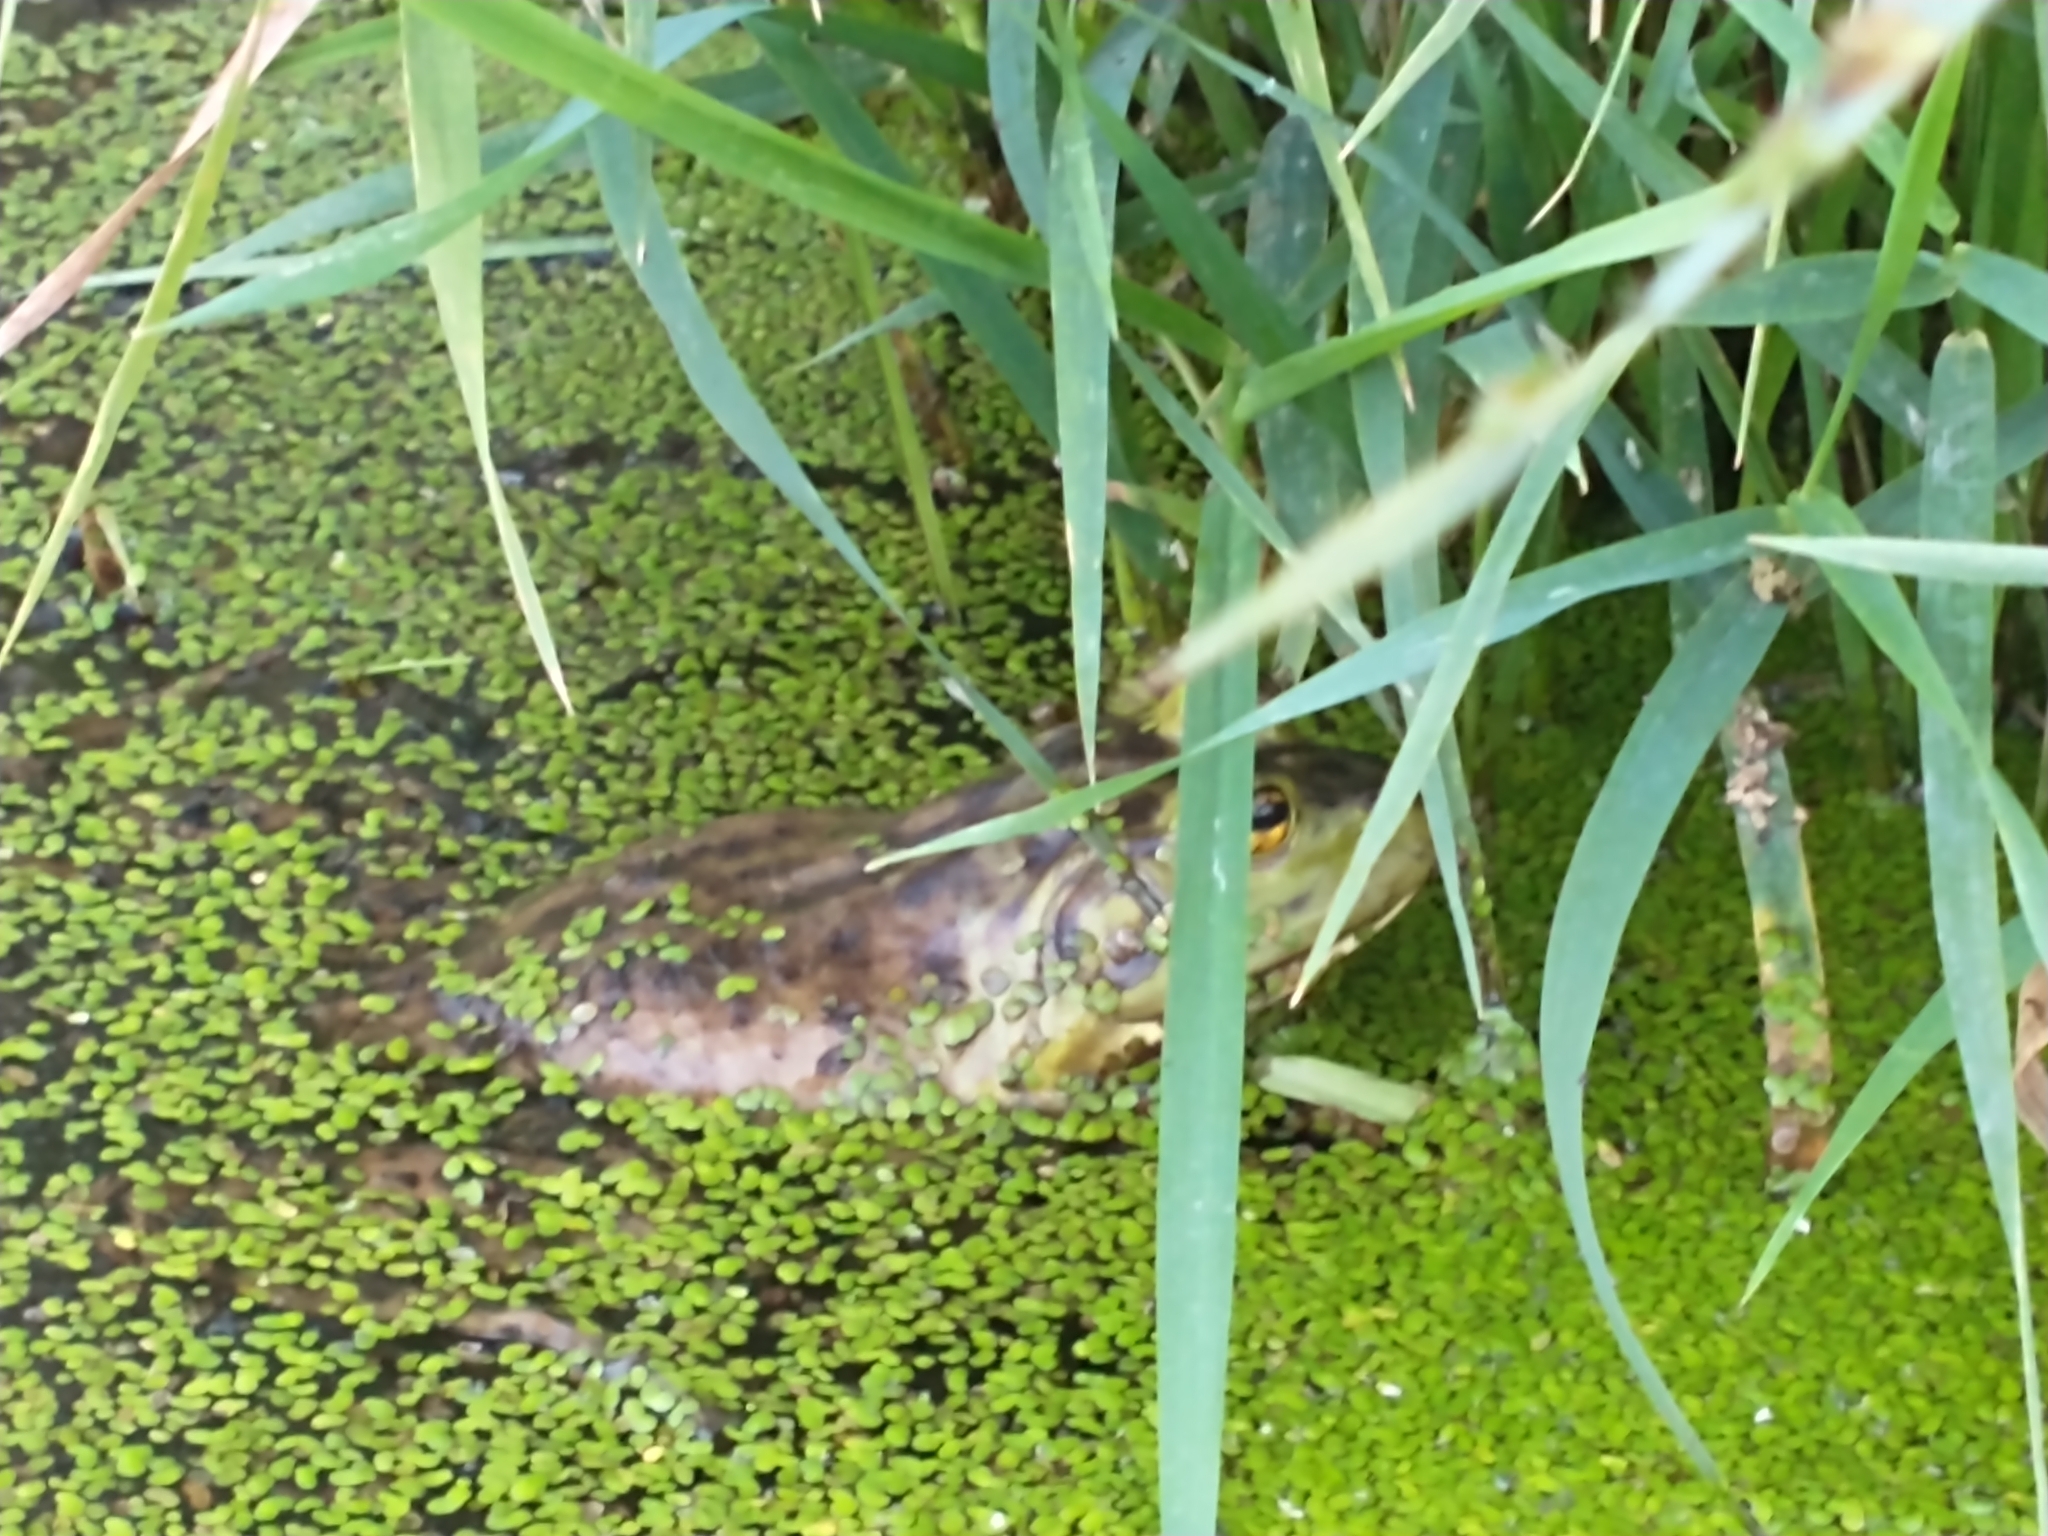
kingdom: Animalia
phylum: Chordata
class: Amphibia
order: Anura
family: Ranidae
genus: Lithobates
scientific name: Lithobates catesbeianus
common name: American bullfrog
